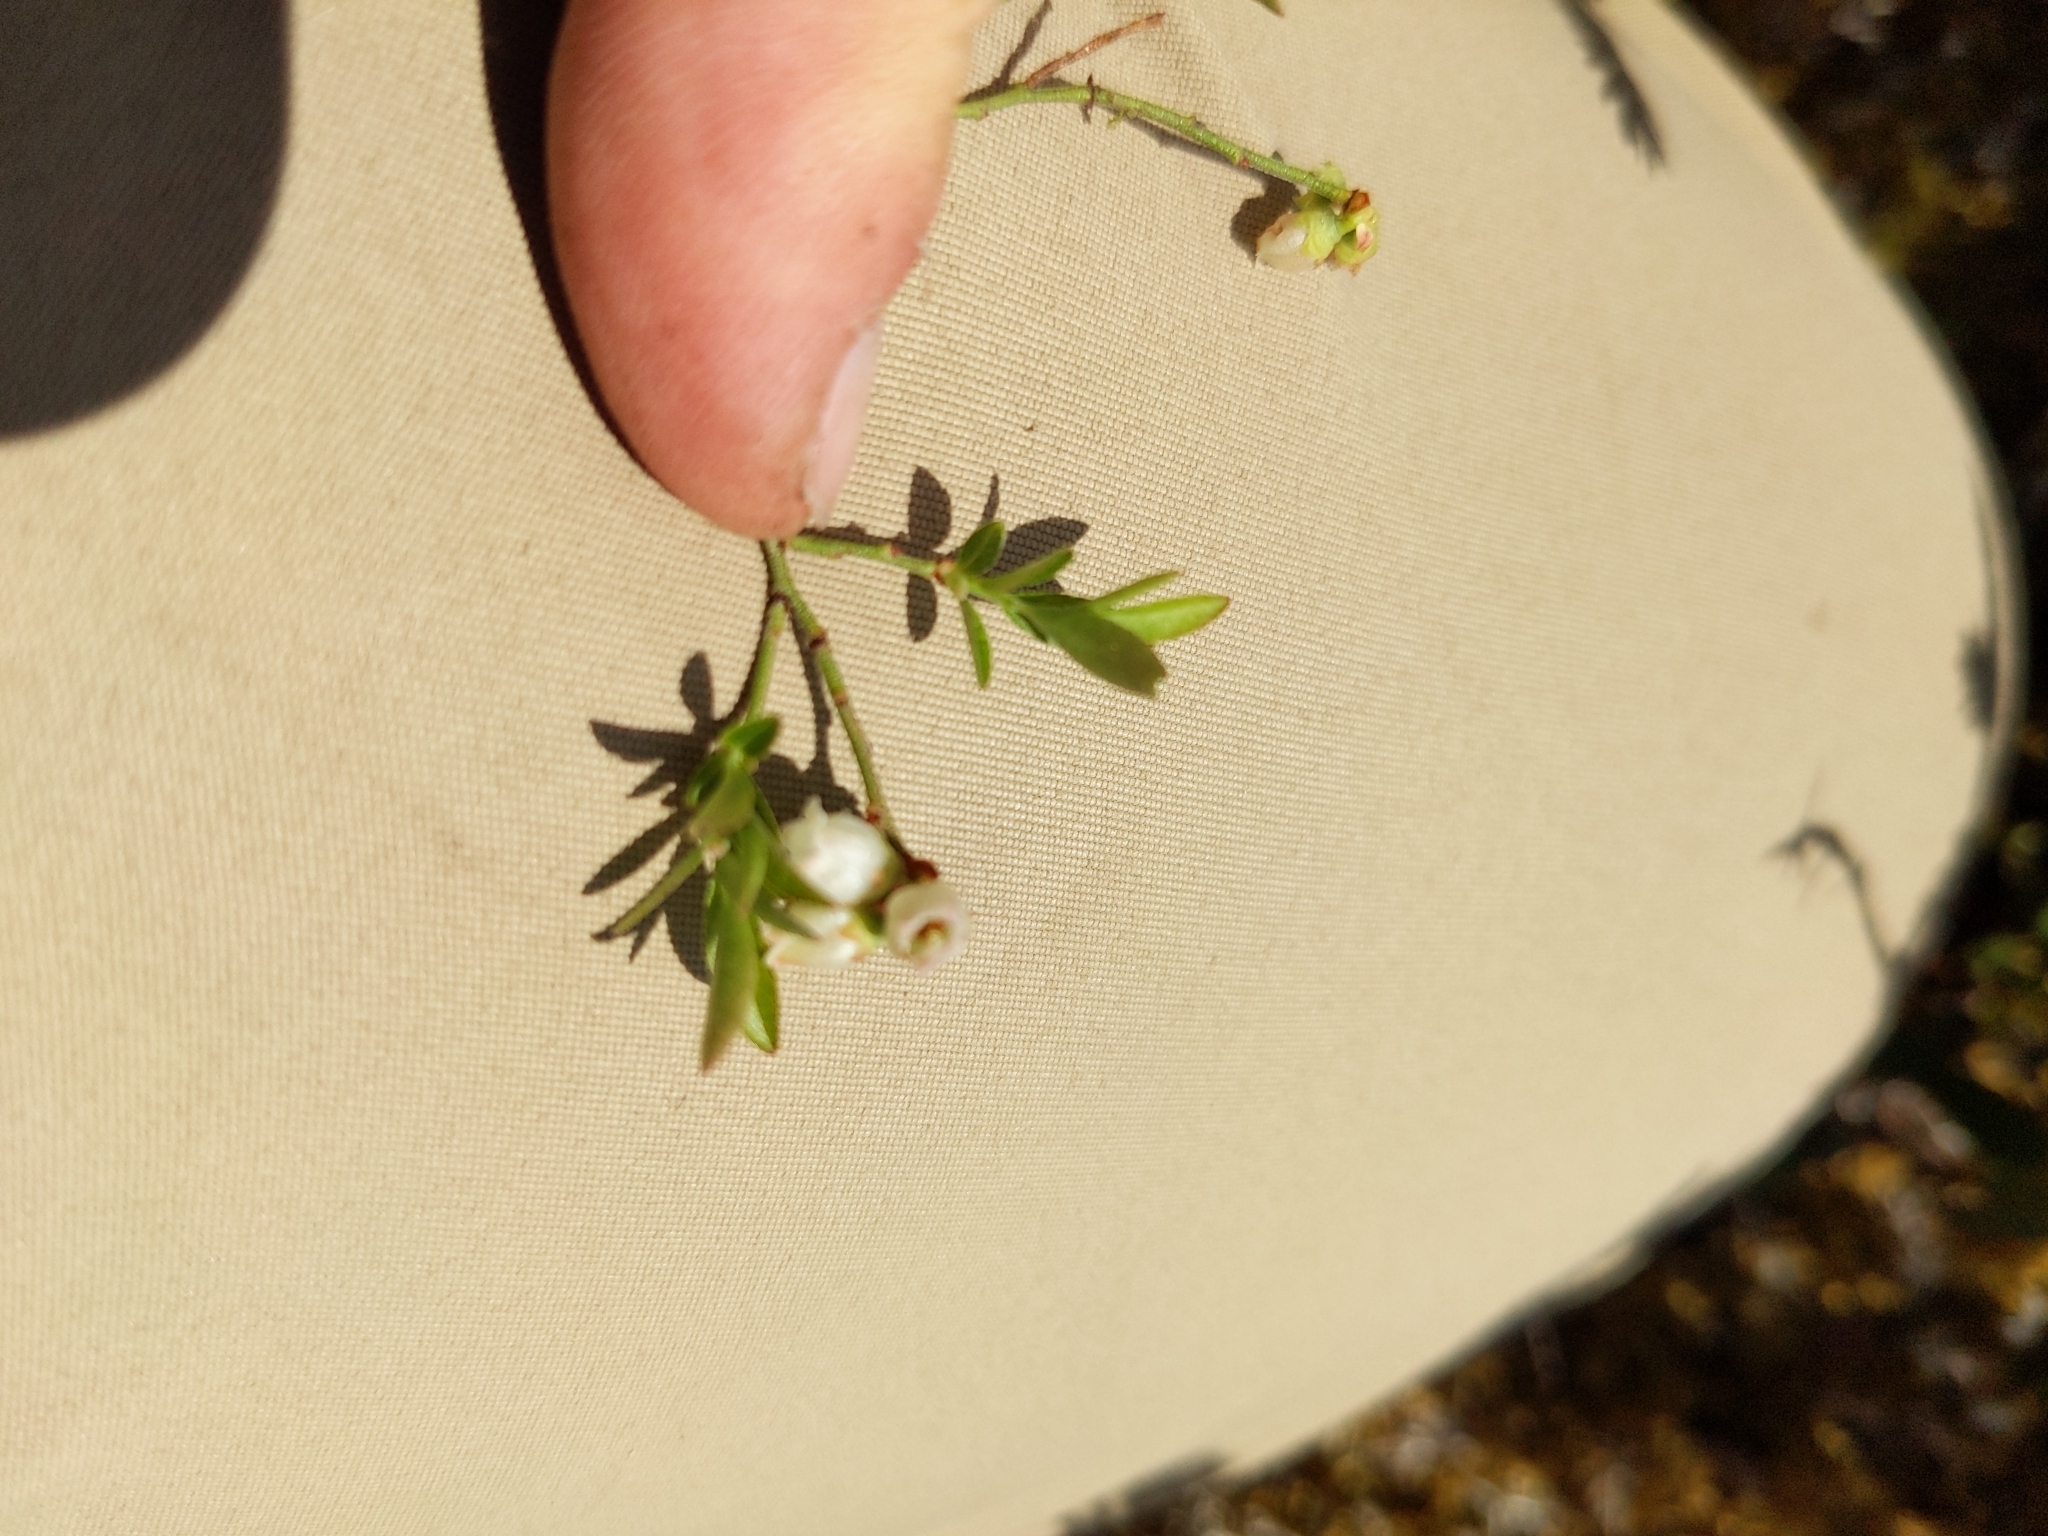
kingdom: Plantae
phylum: Tracheophyta
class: Magnoliopsida
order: Ericales
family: Ericaceae
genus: Vaccinium
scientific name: Vaccinium boreale
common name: Northern blueberry
